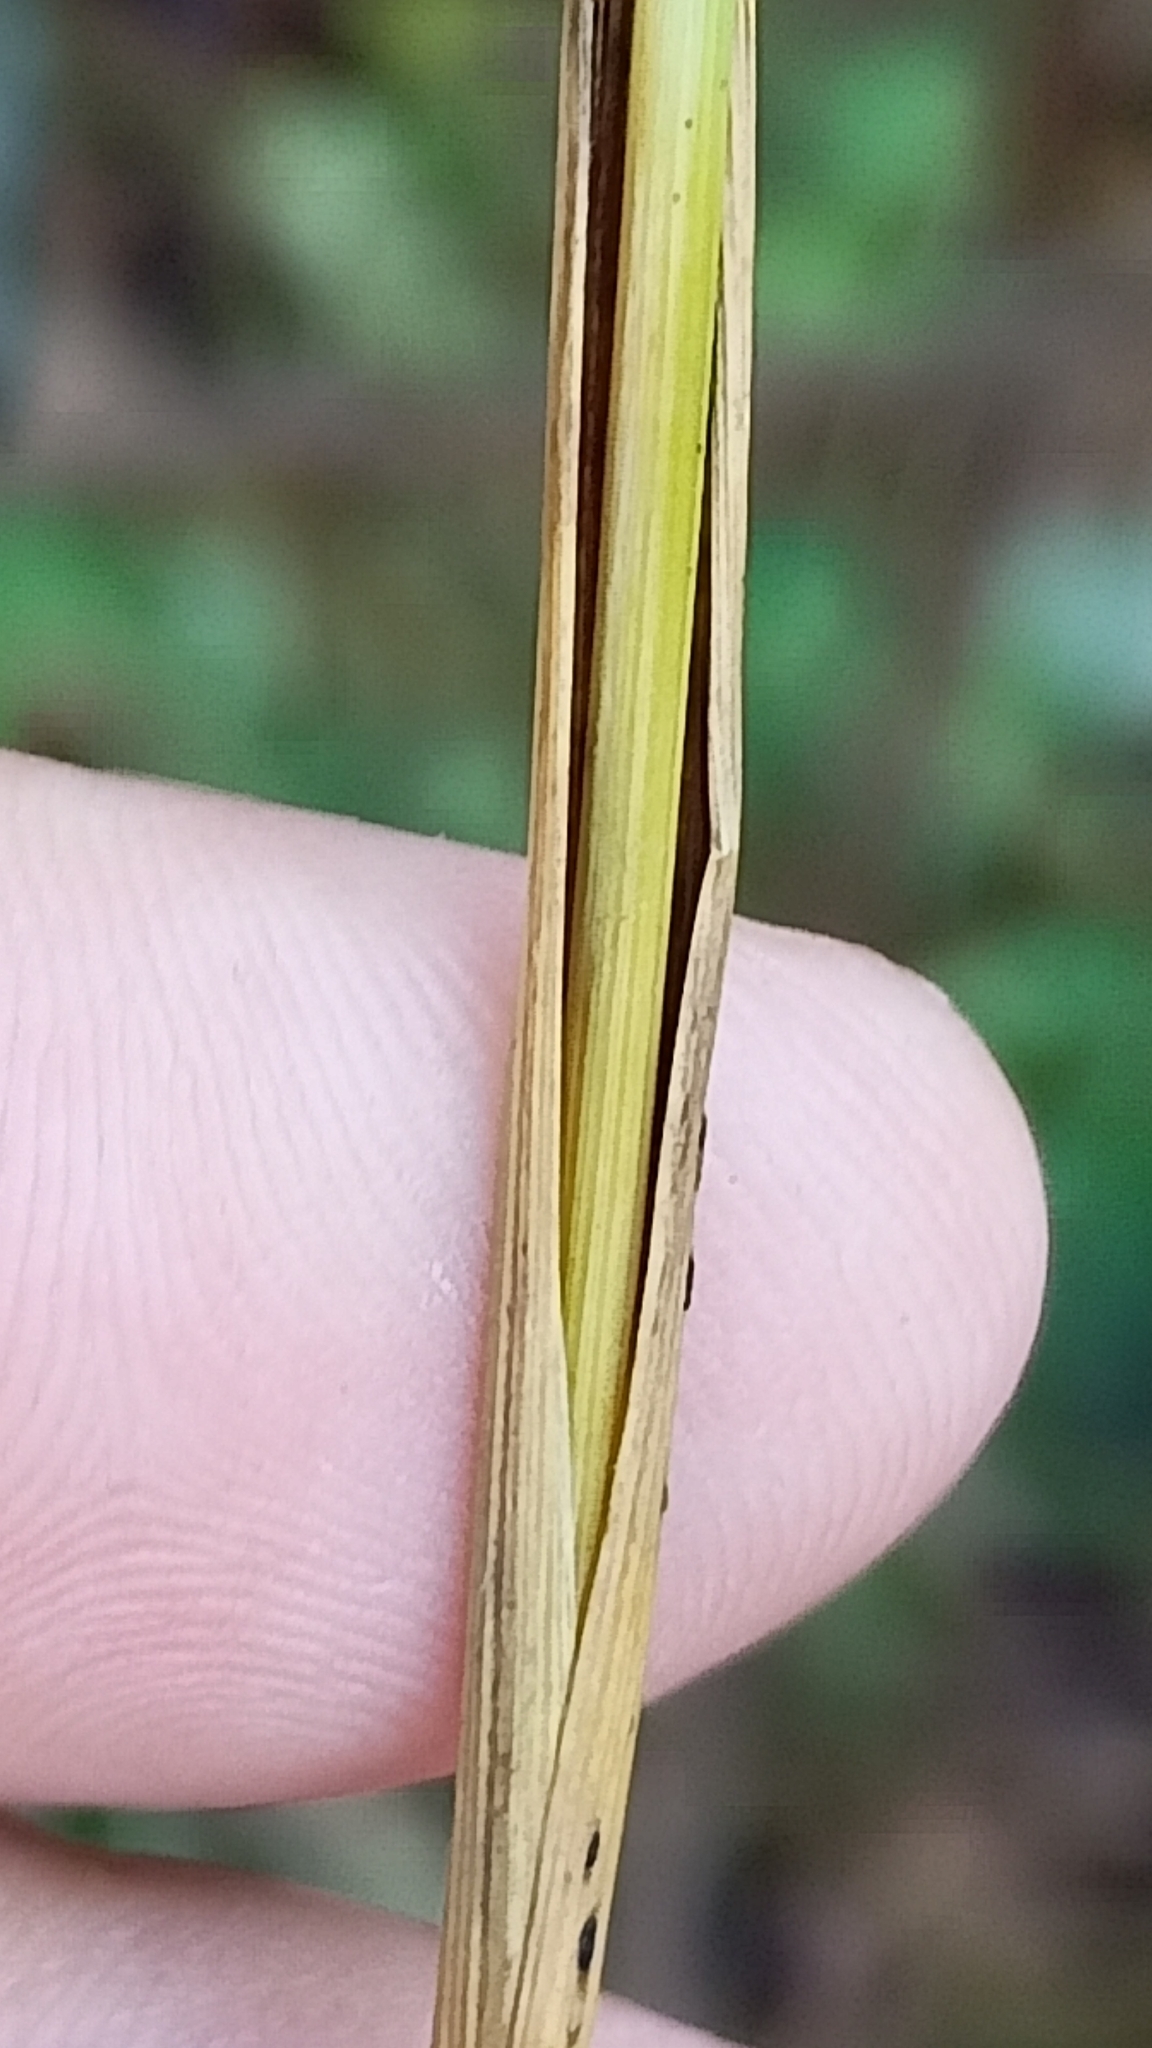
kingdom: Plantae
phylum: Tracheophyta
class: Liliopsida
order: Poales
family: Poaceae
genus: Elymus
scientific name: Elymus repens
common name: Quackgrass
